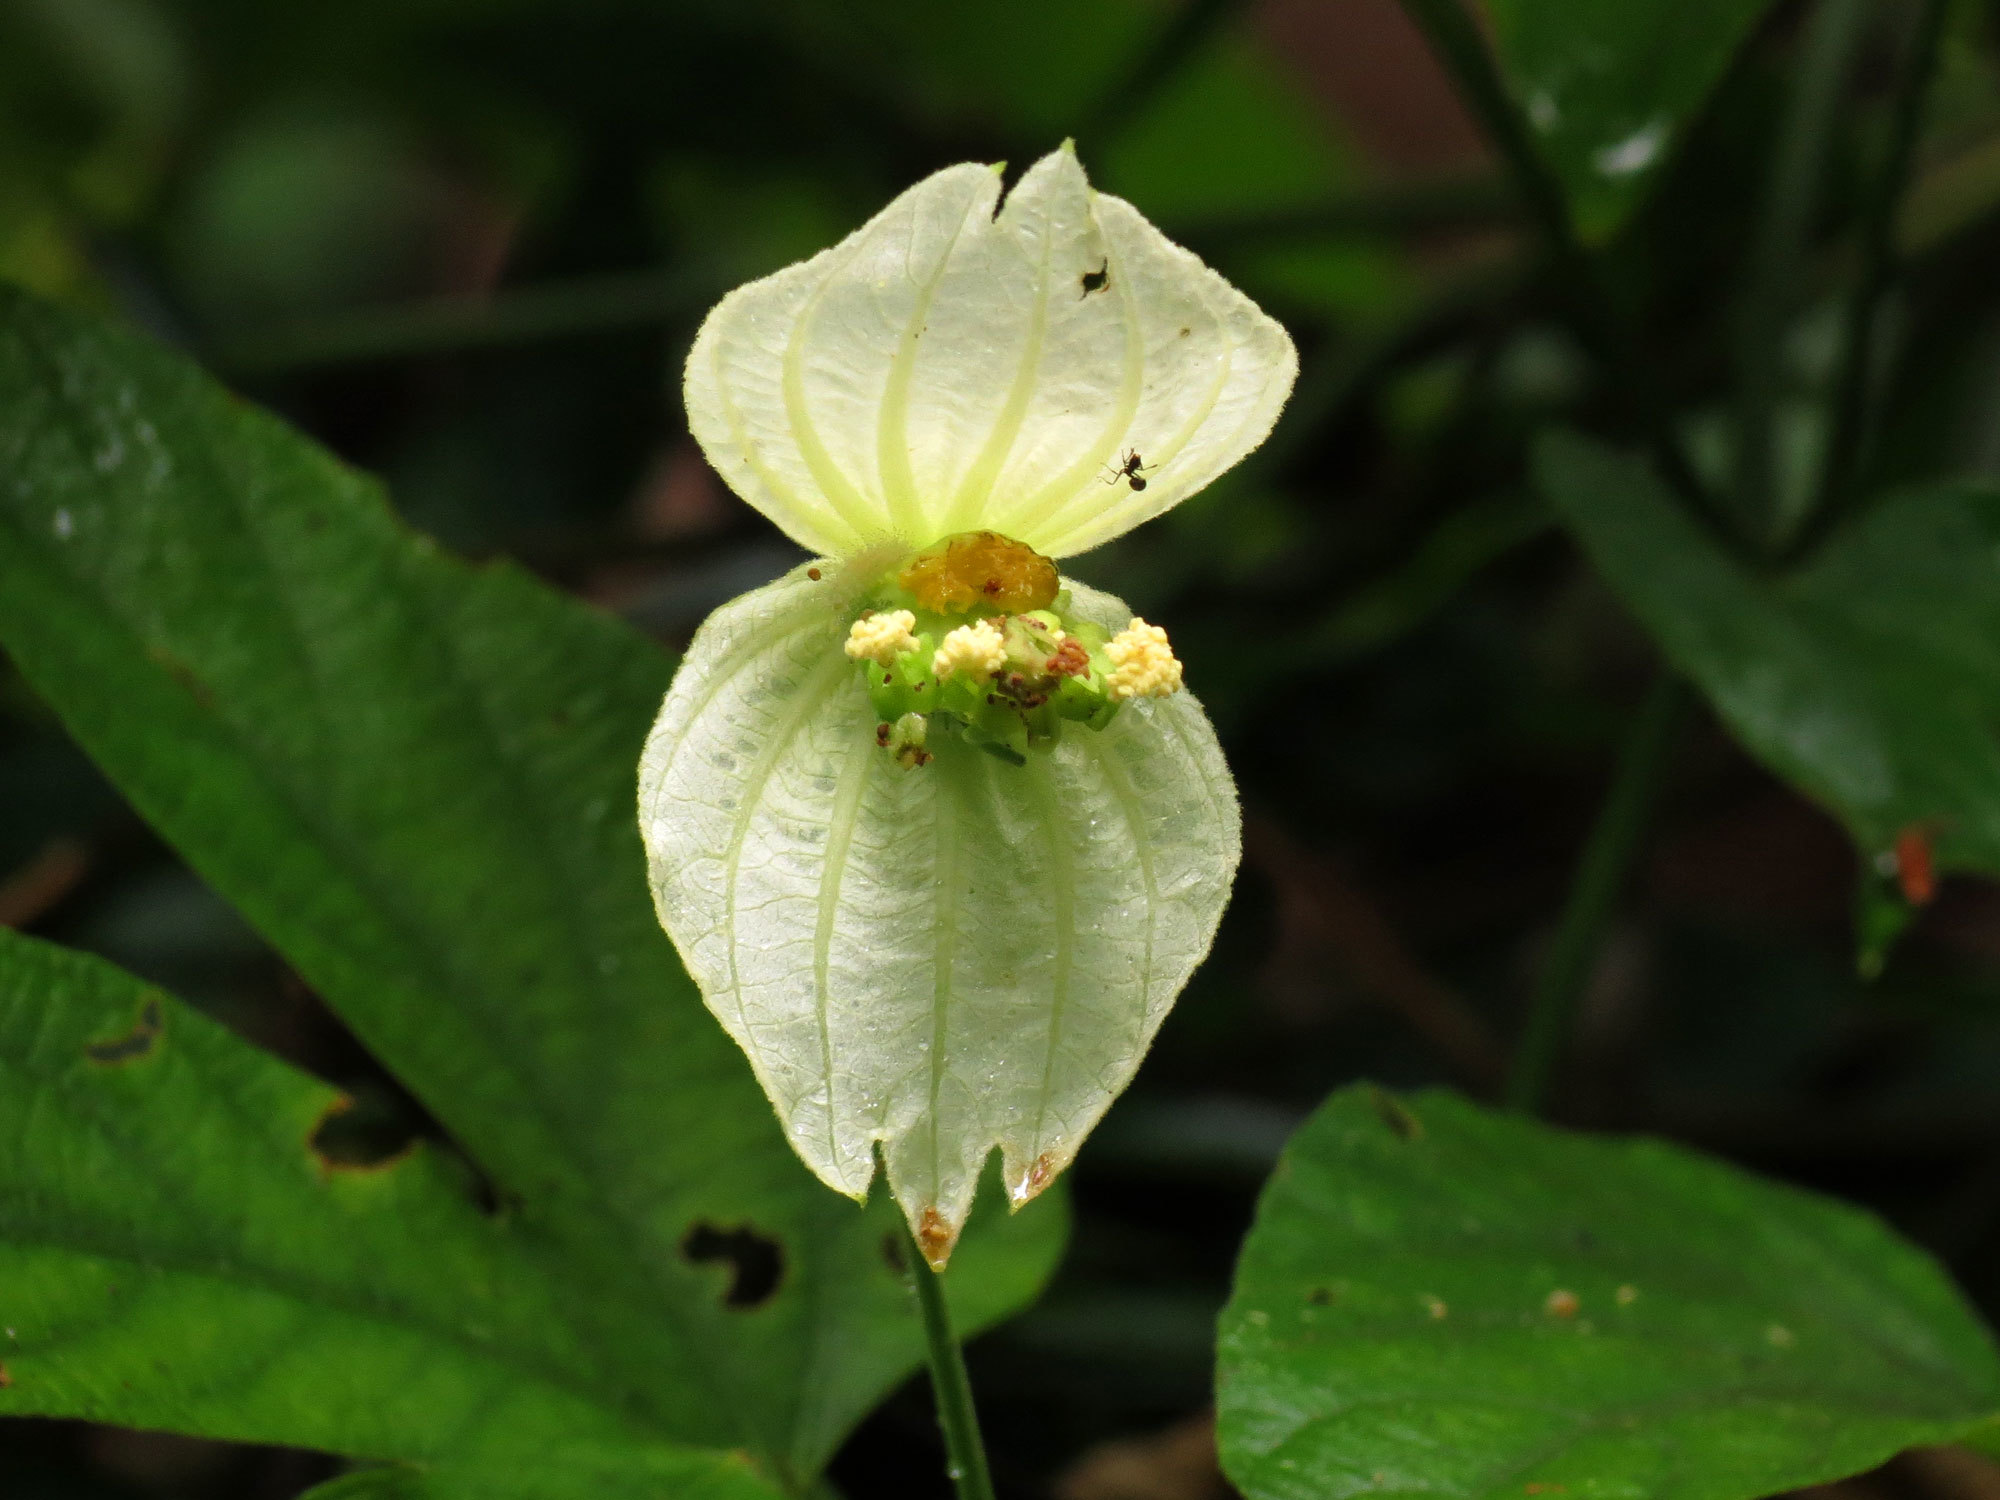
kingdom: Plantae
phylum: Tracheophyta
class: Magnoliopsida
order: Malpighiales
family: Euphorbiaceae
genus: Dalechampia
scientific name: Dalechampia tiliifolia
